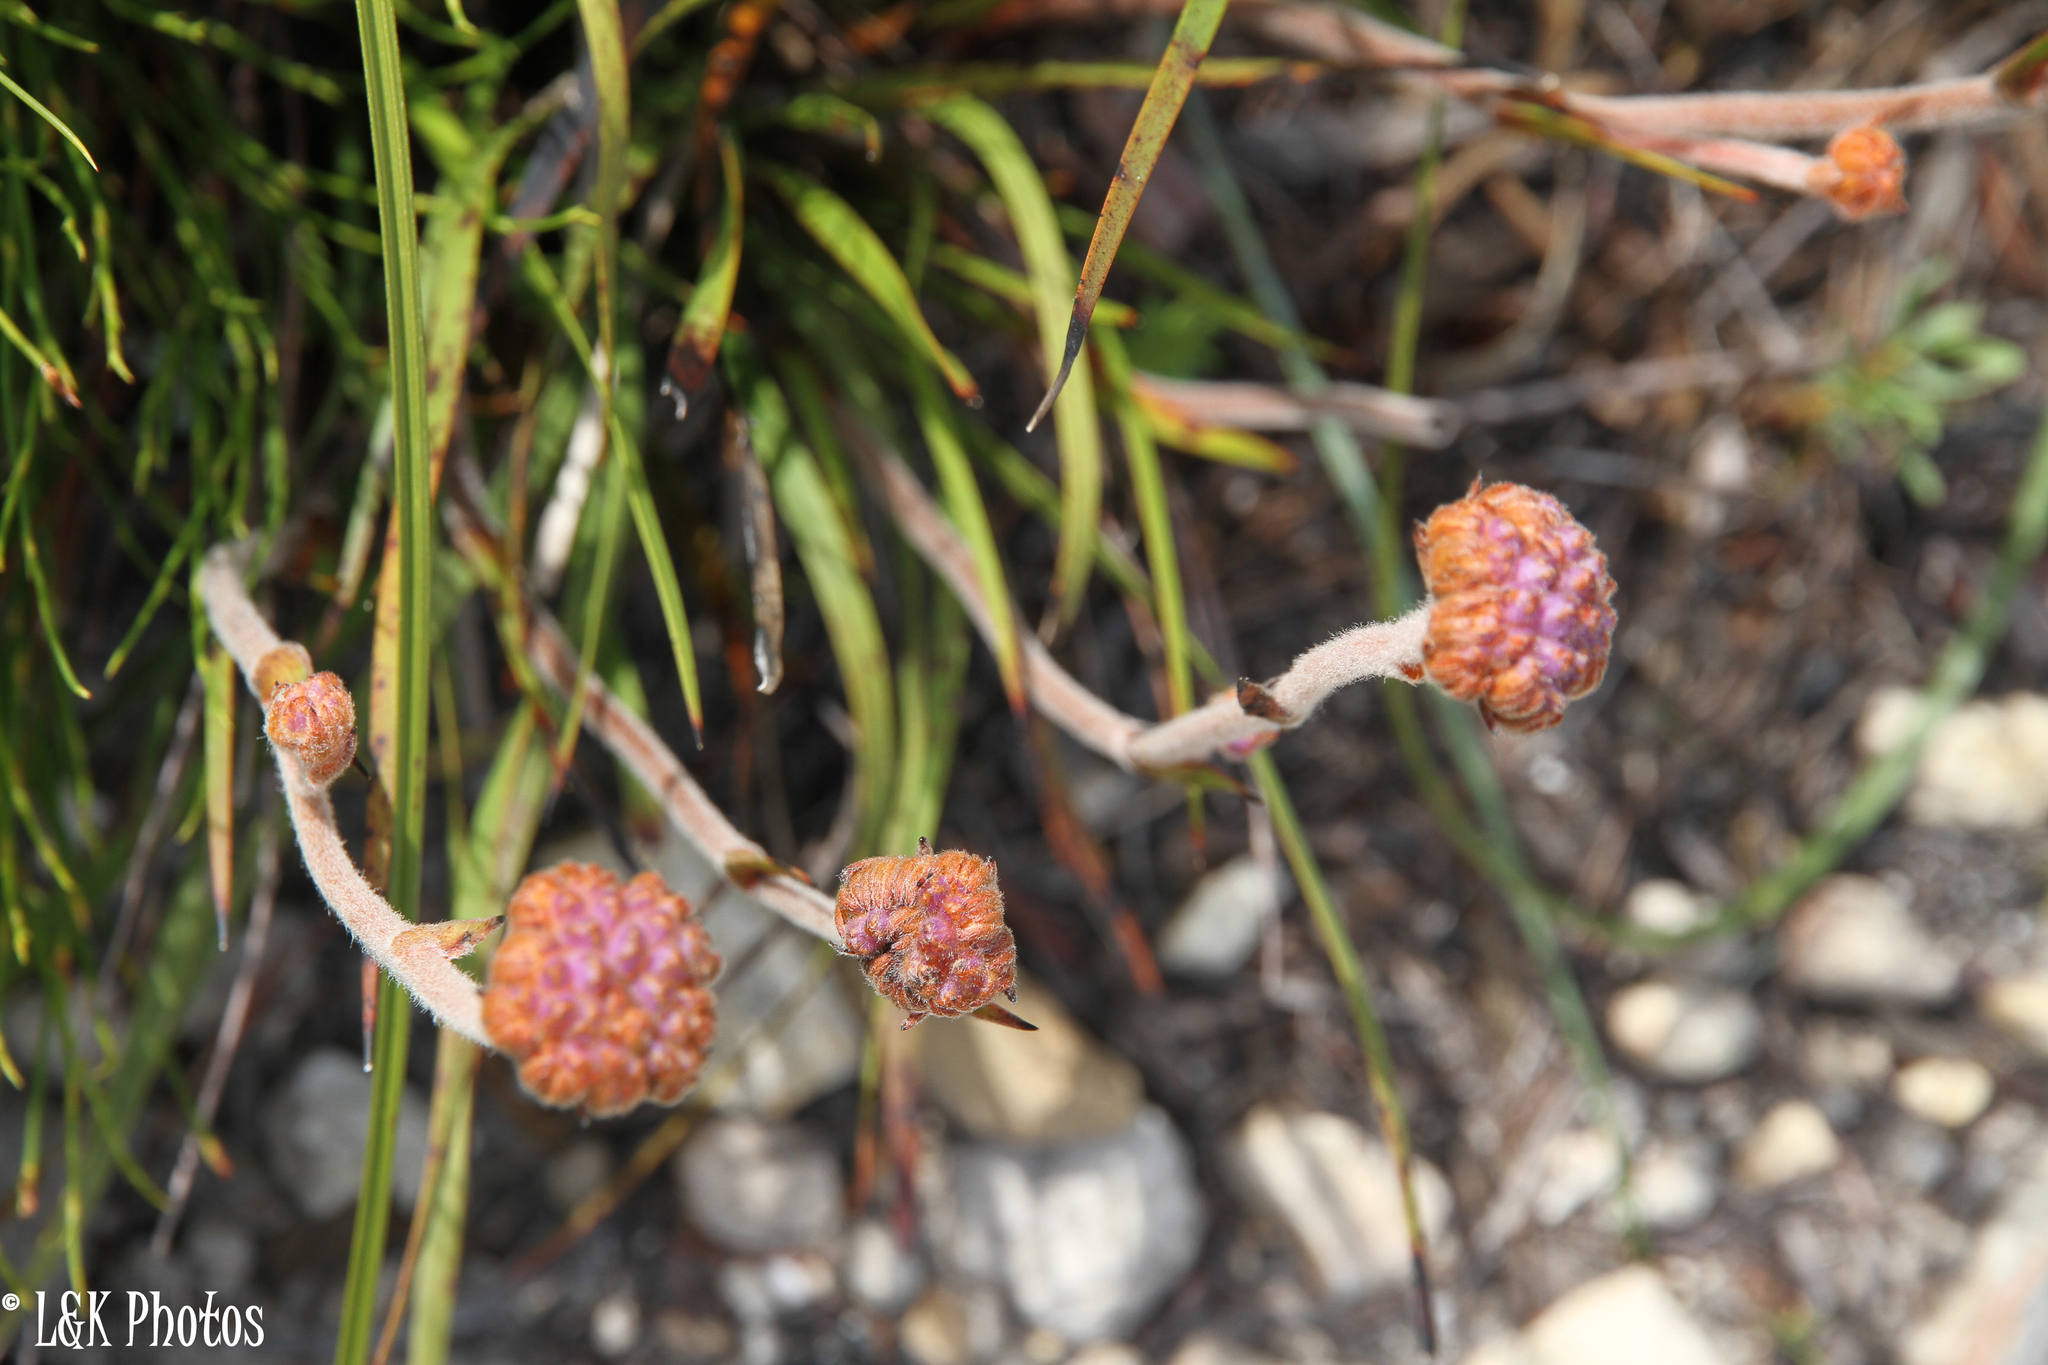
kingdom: Plantae
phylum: Tracheophyta
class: Liliopsida
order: Commelinales
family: Haemodoraceae
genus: Dilatris
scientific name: Dilatris pillansii
